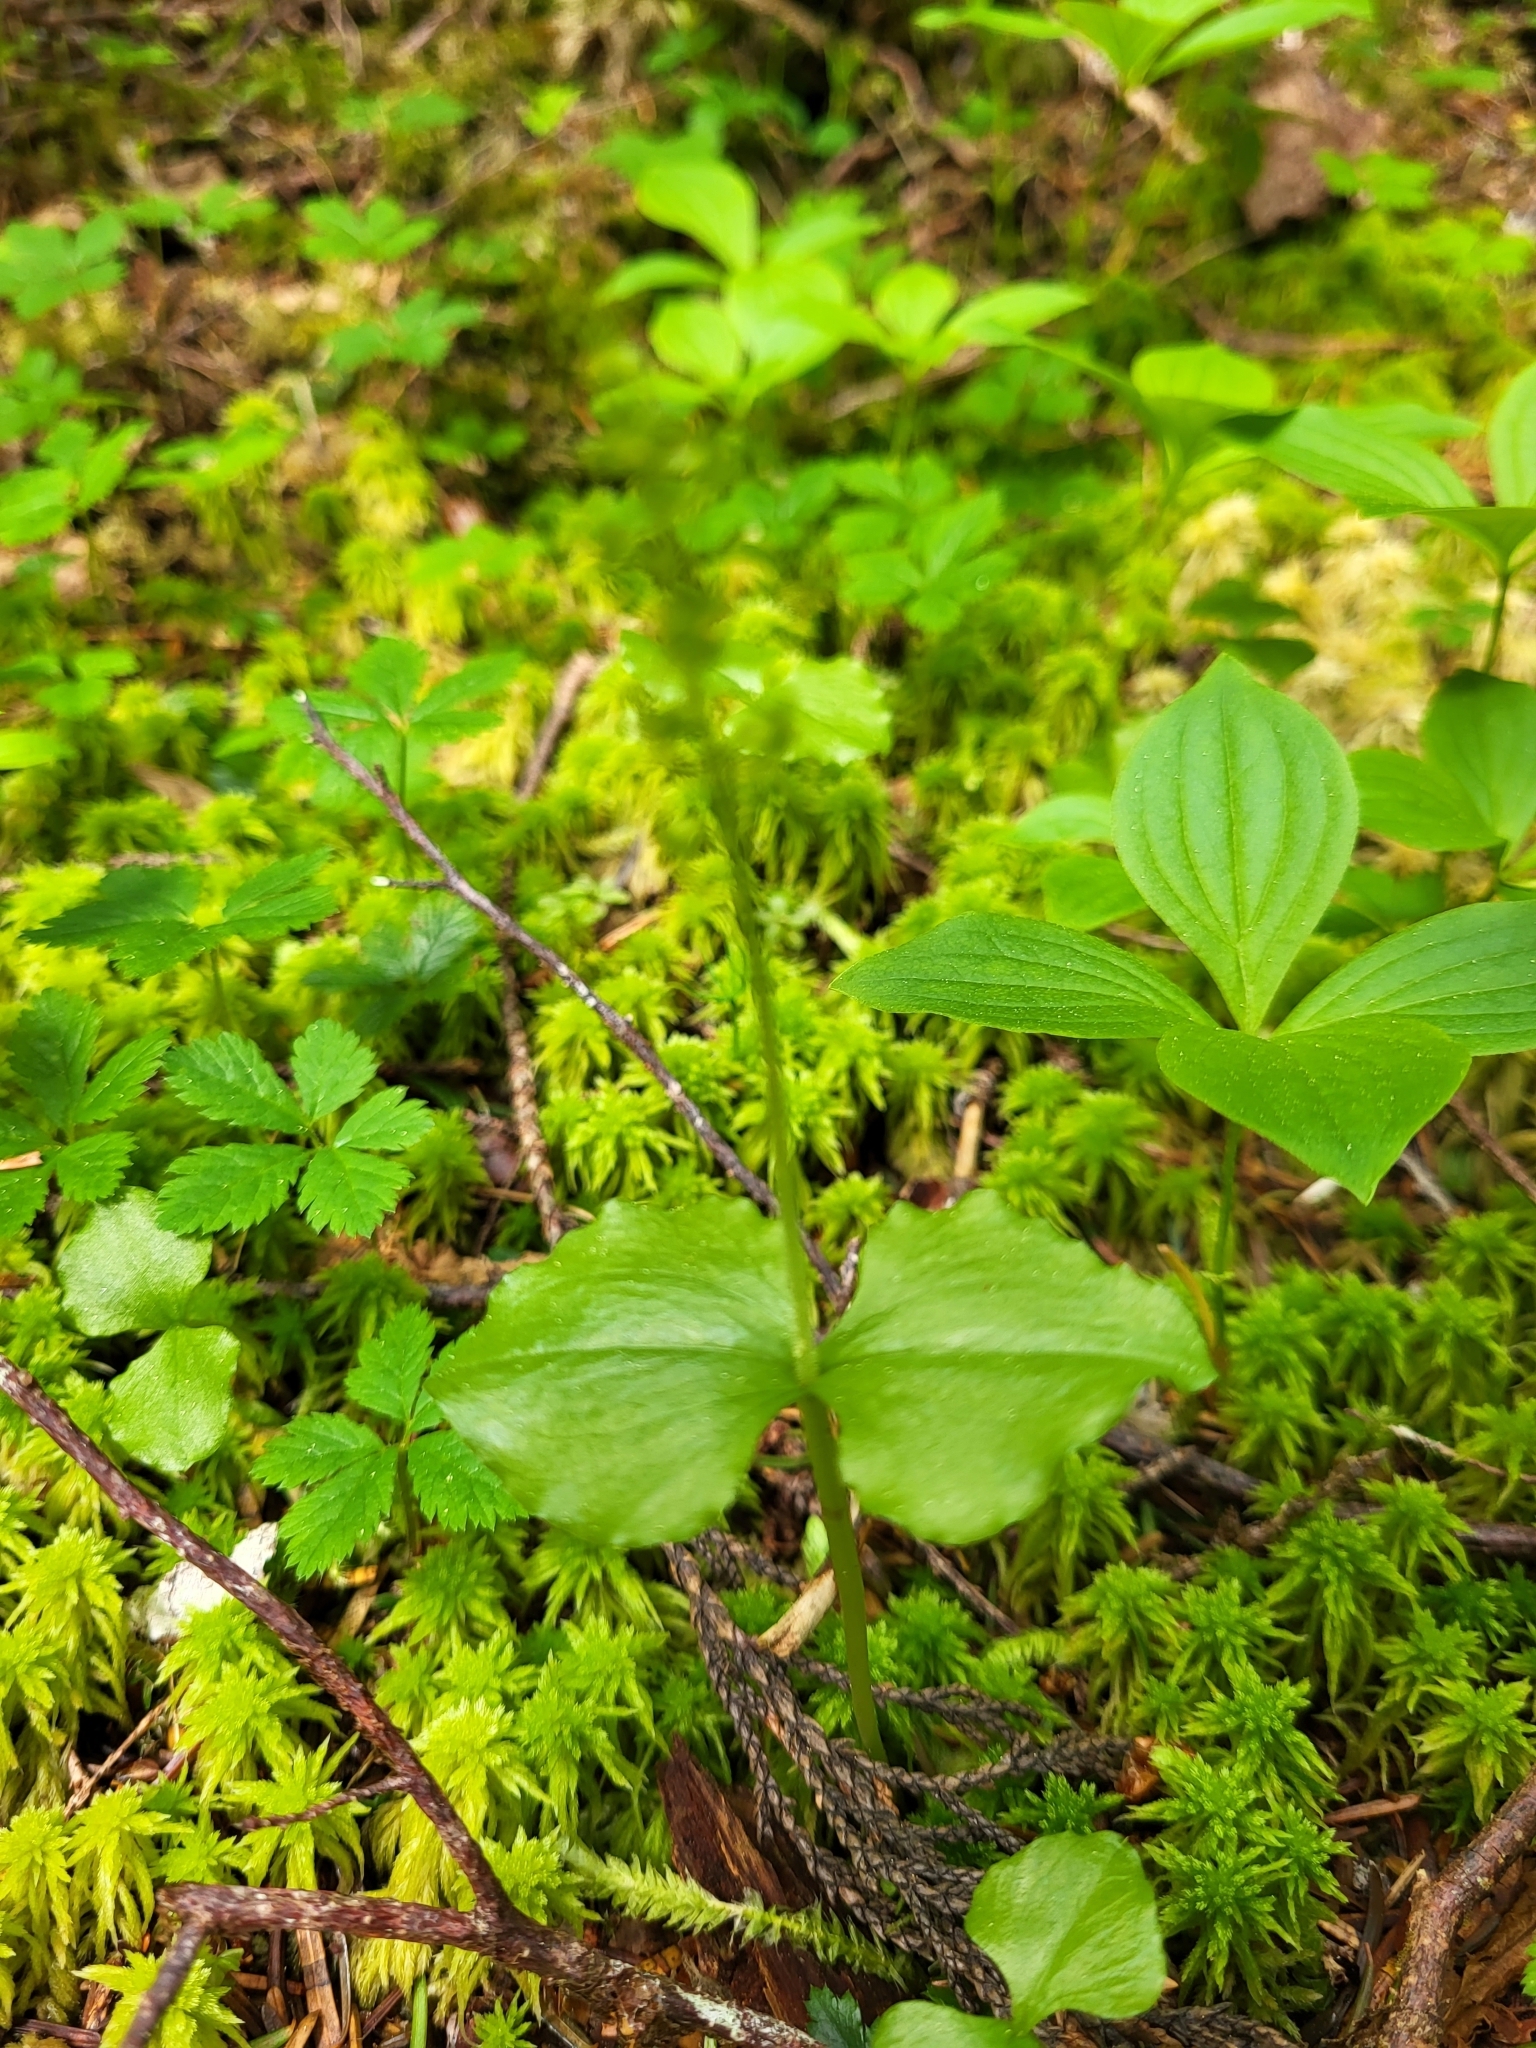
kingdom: Plantae
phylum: Tracheophyta
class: Liliopsida
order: Asparagales
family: Orchidaceae
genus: Neottia
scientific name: Neottia cordata
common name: Lesser twayblade
